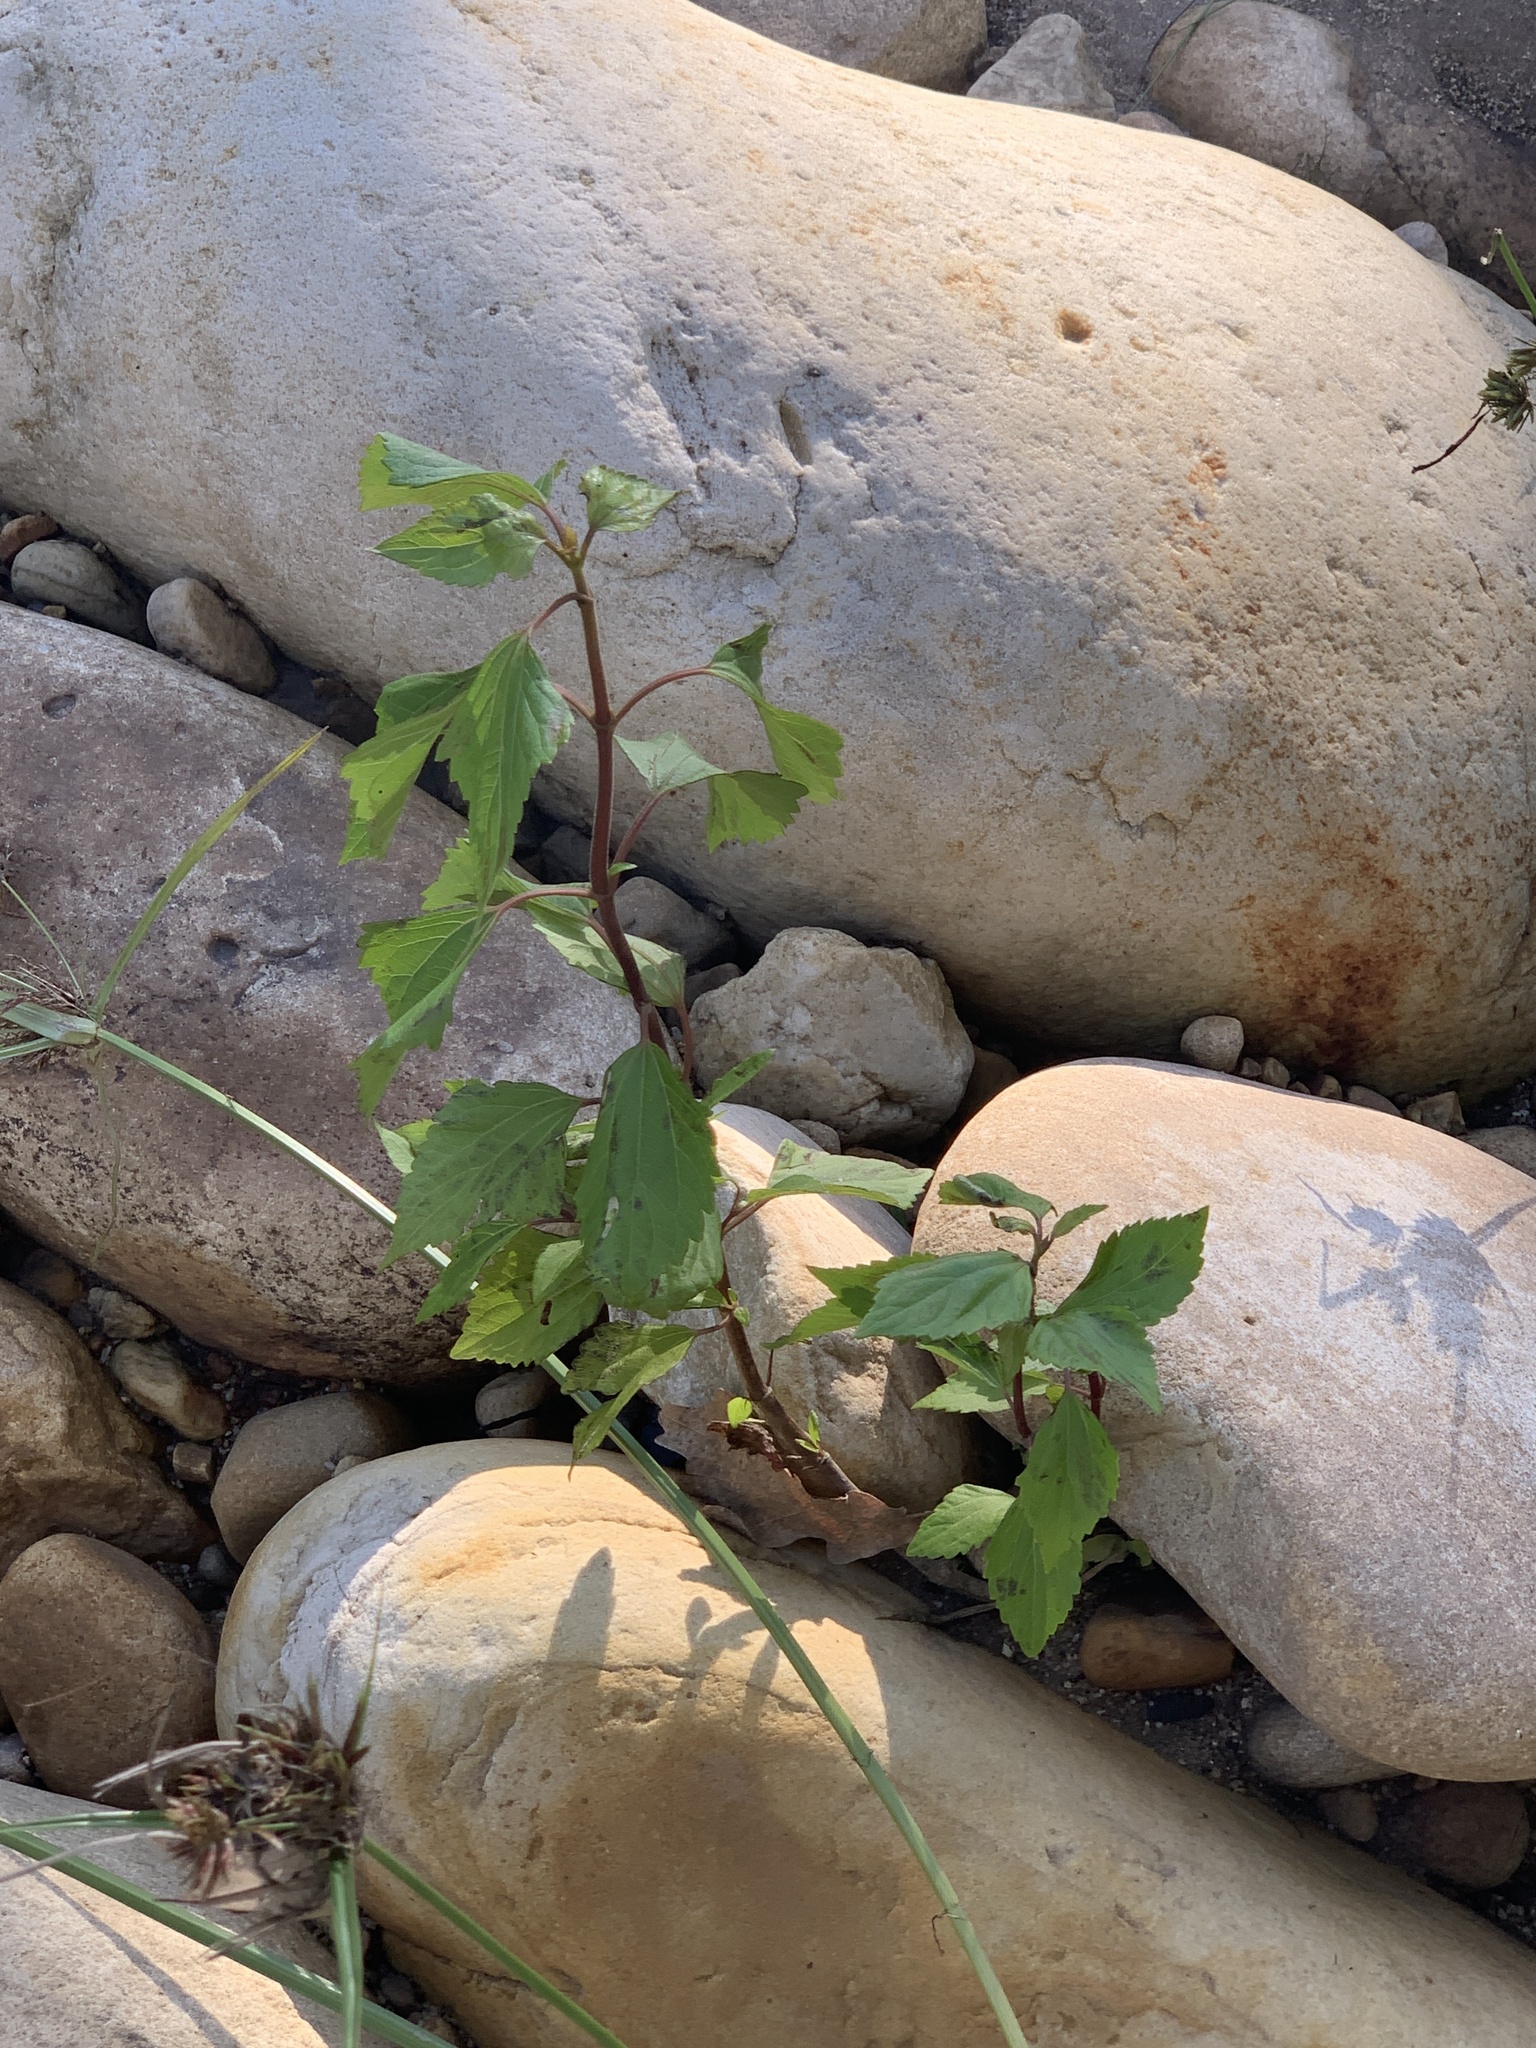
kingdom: Plantae
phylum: Tracheophyta
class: Magnoliopsida
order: Asterales
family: Asteraceae
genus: Ageratina
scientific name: Ageratina adenophora
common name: Sticky snakeroot
